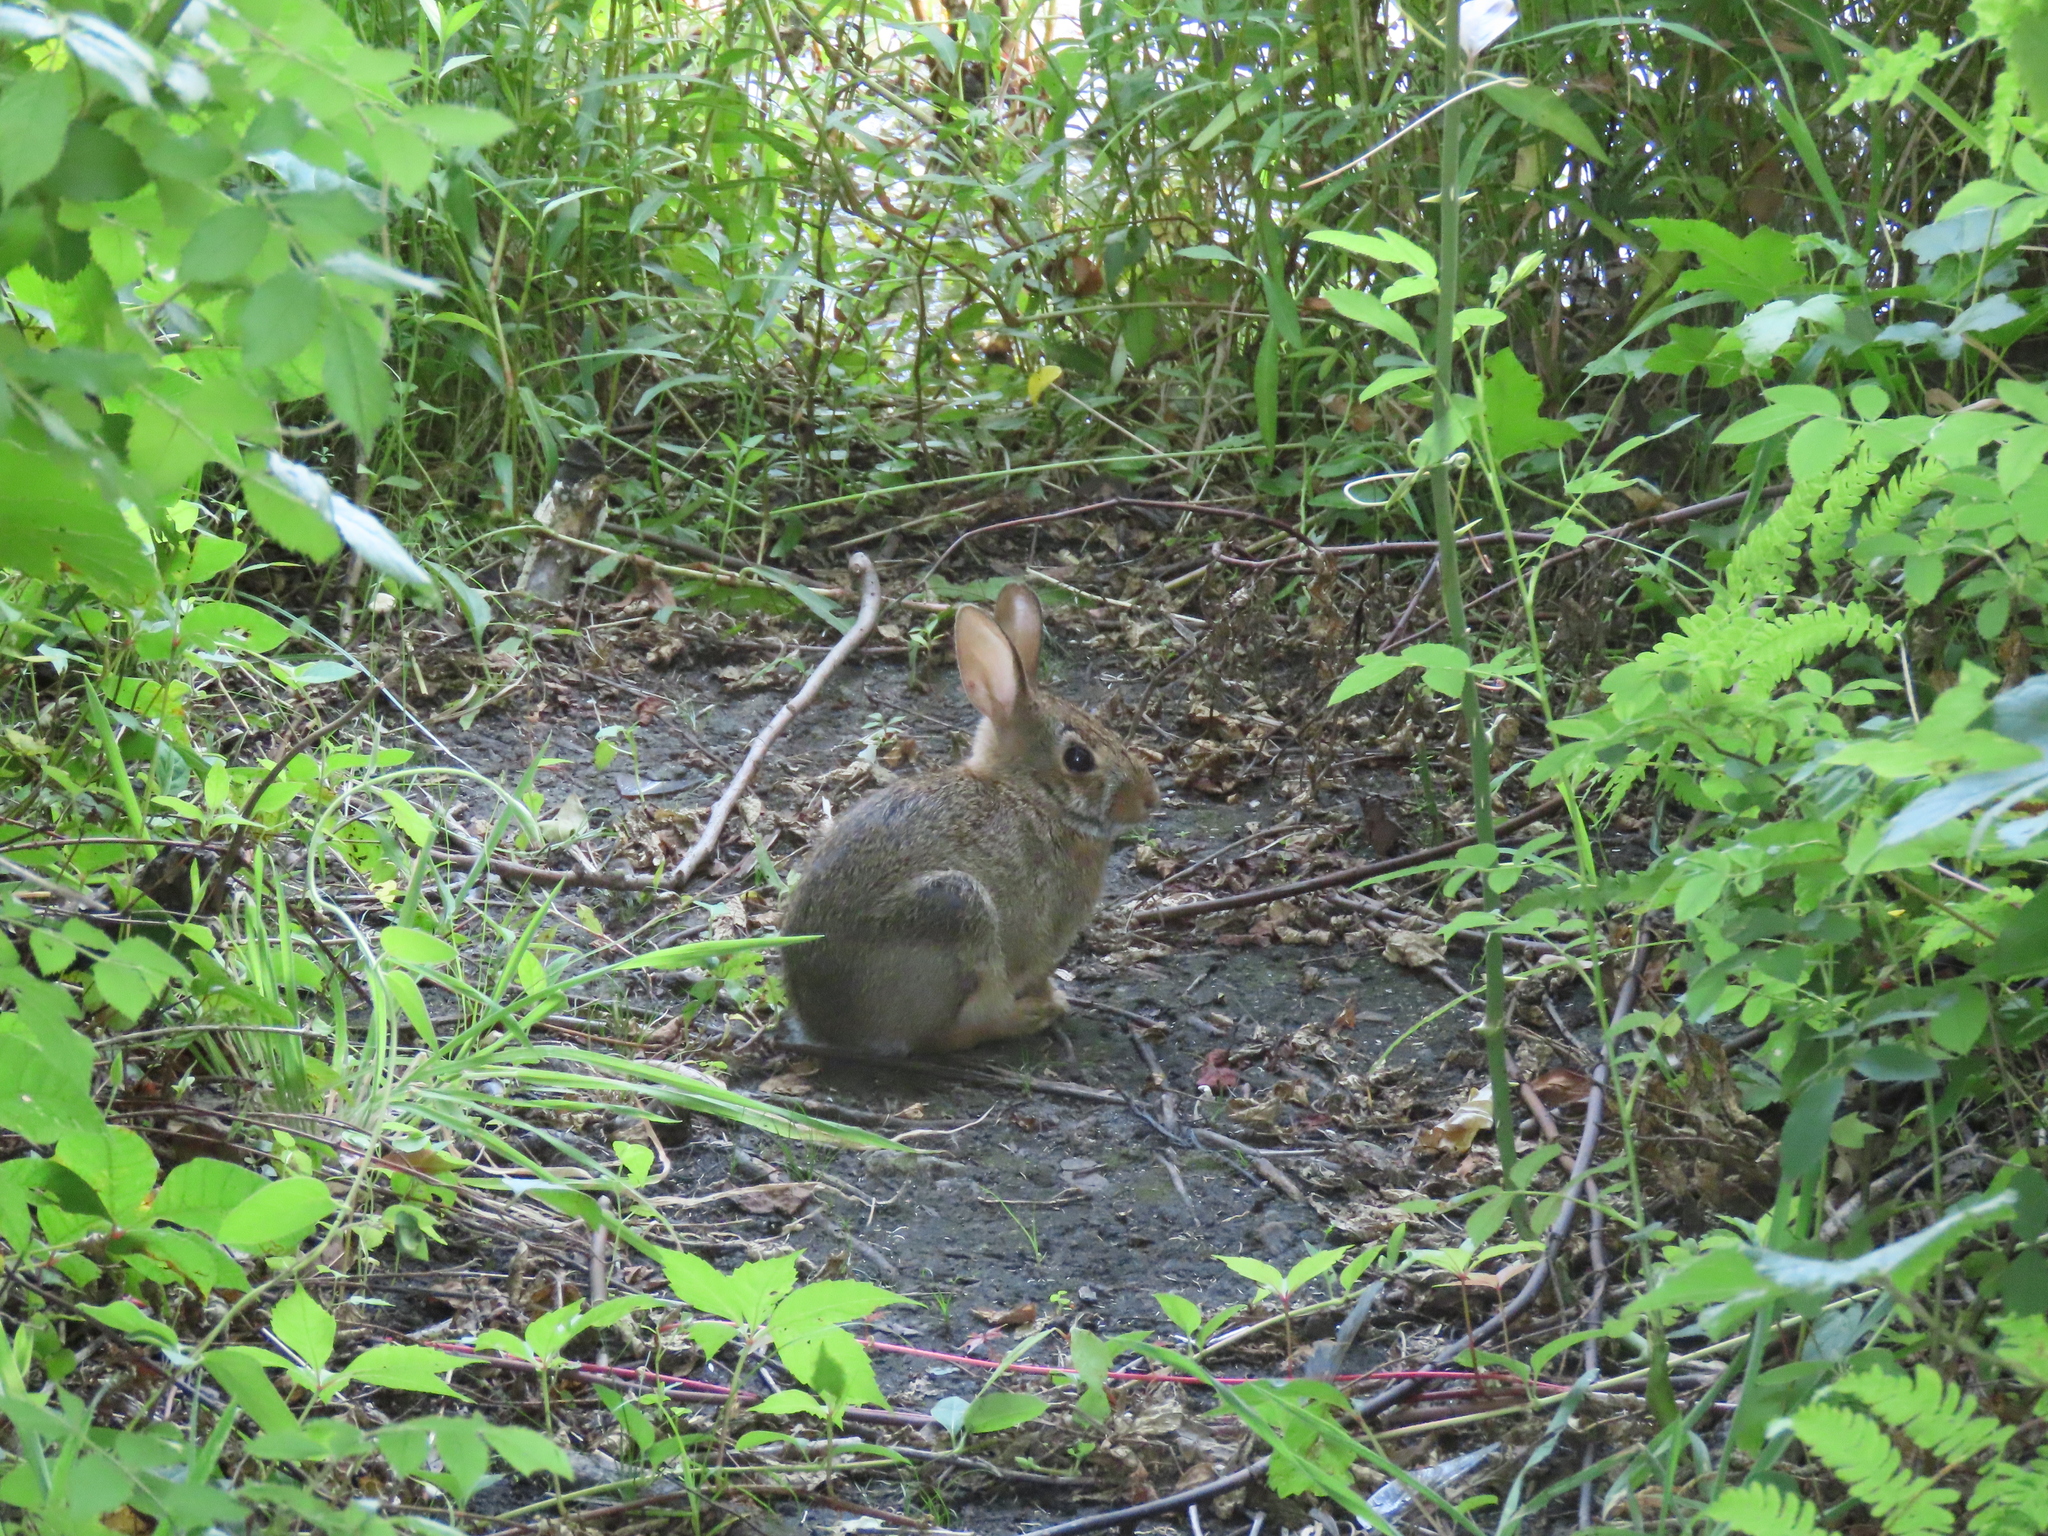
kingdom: Animalia
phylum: Chordata
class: Mammalia
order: Lagomorpha
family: Leporidae
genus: Sylvilagus
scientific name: Sylvilagus floridanus
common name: Eastern cottontail
